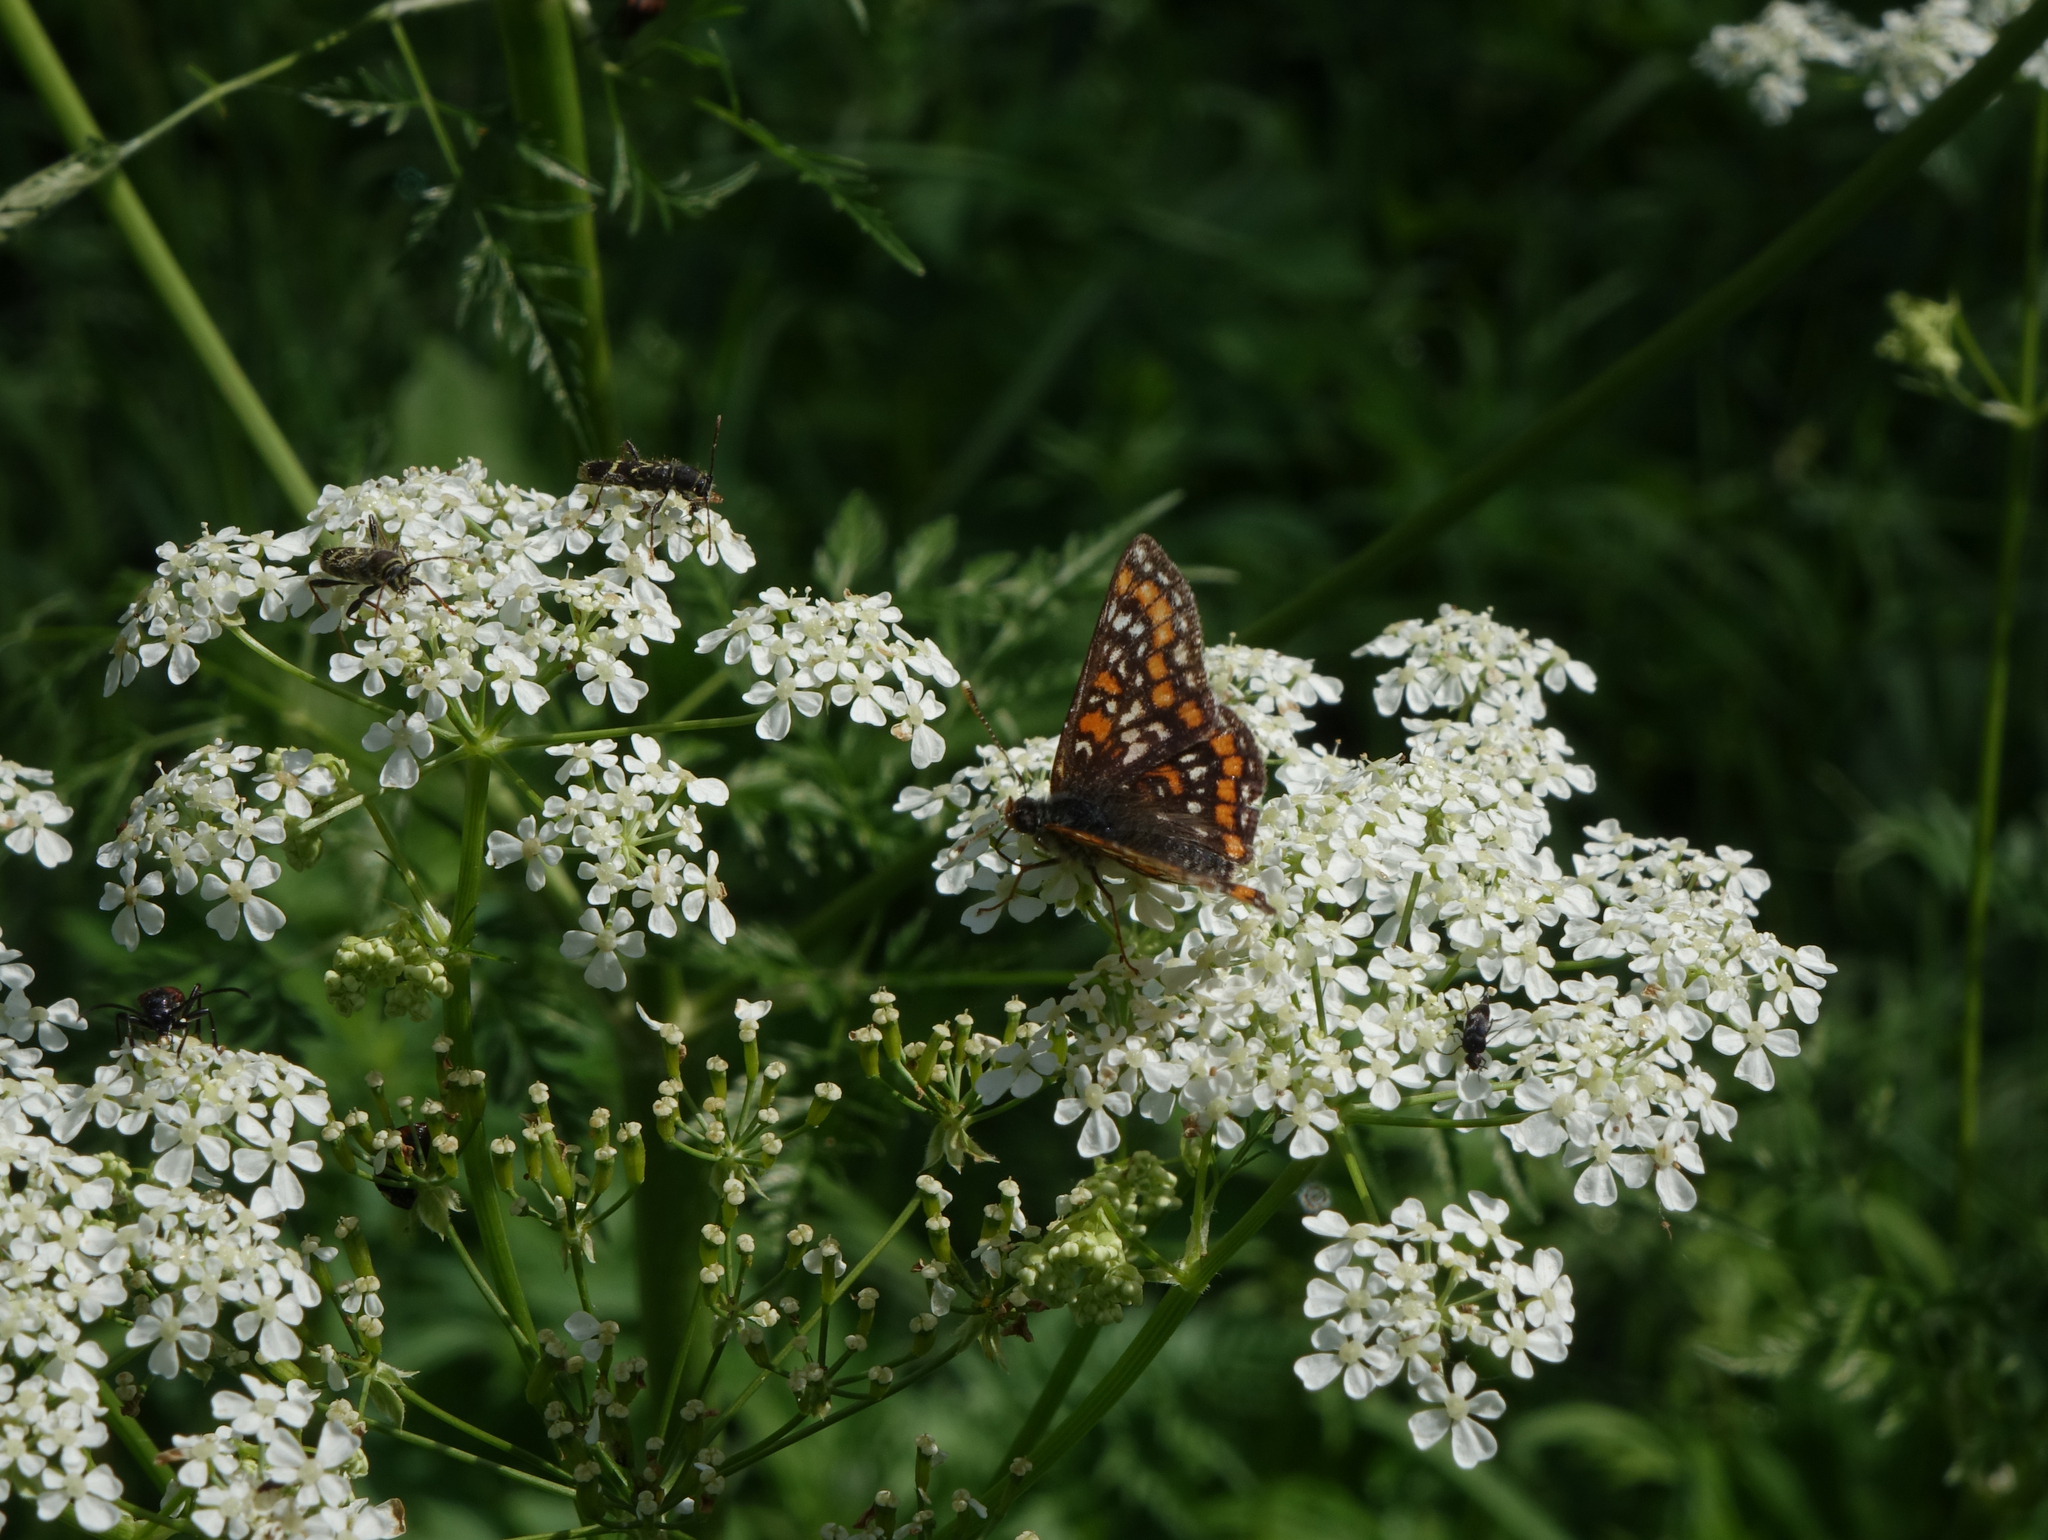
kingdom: Animalia
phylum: Arthropoda
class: Insecta
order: Lepidoptera
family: Nymphalidae
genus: Euphydryas
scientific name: Euphydryas maturna
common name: Scarce fritillary
